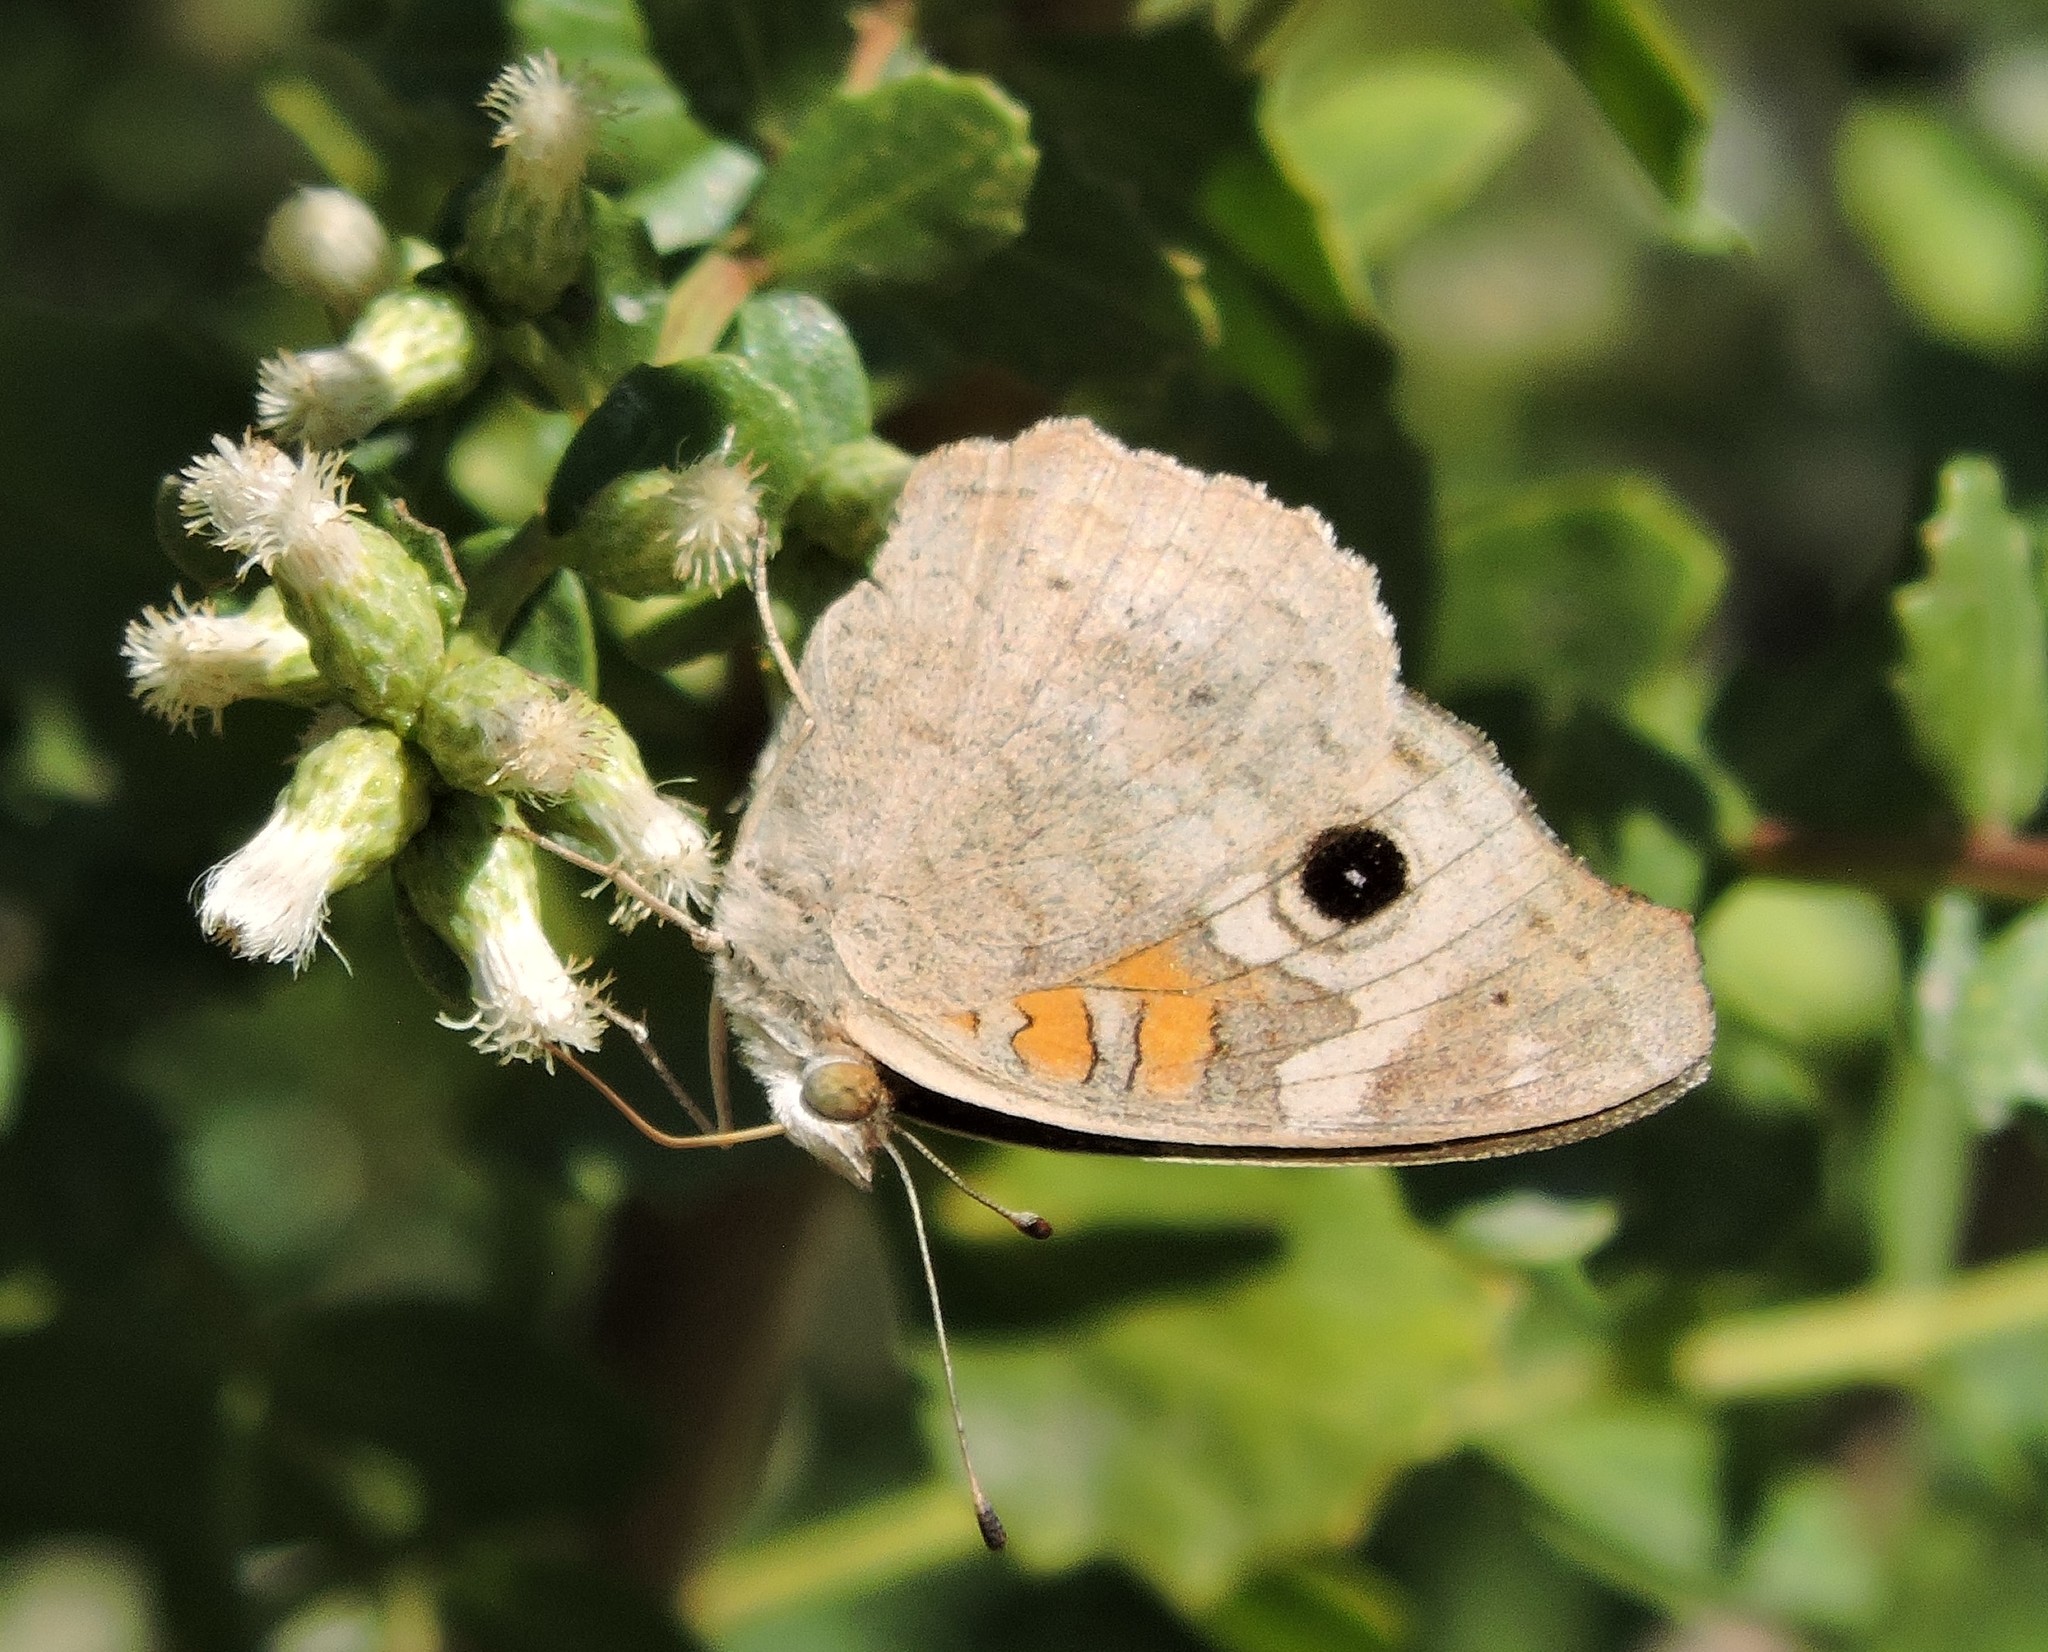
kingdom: Animalia
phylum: Arthropoda
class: Insecta
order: Lepidoptera
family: Nymphalidae
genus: Junonia
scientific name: Junonia grisea
